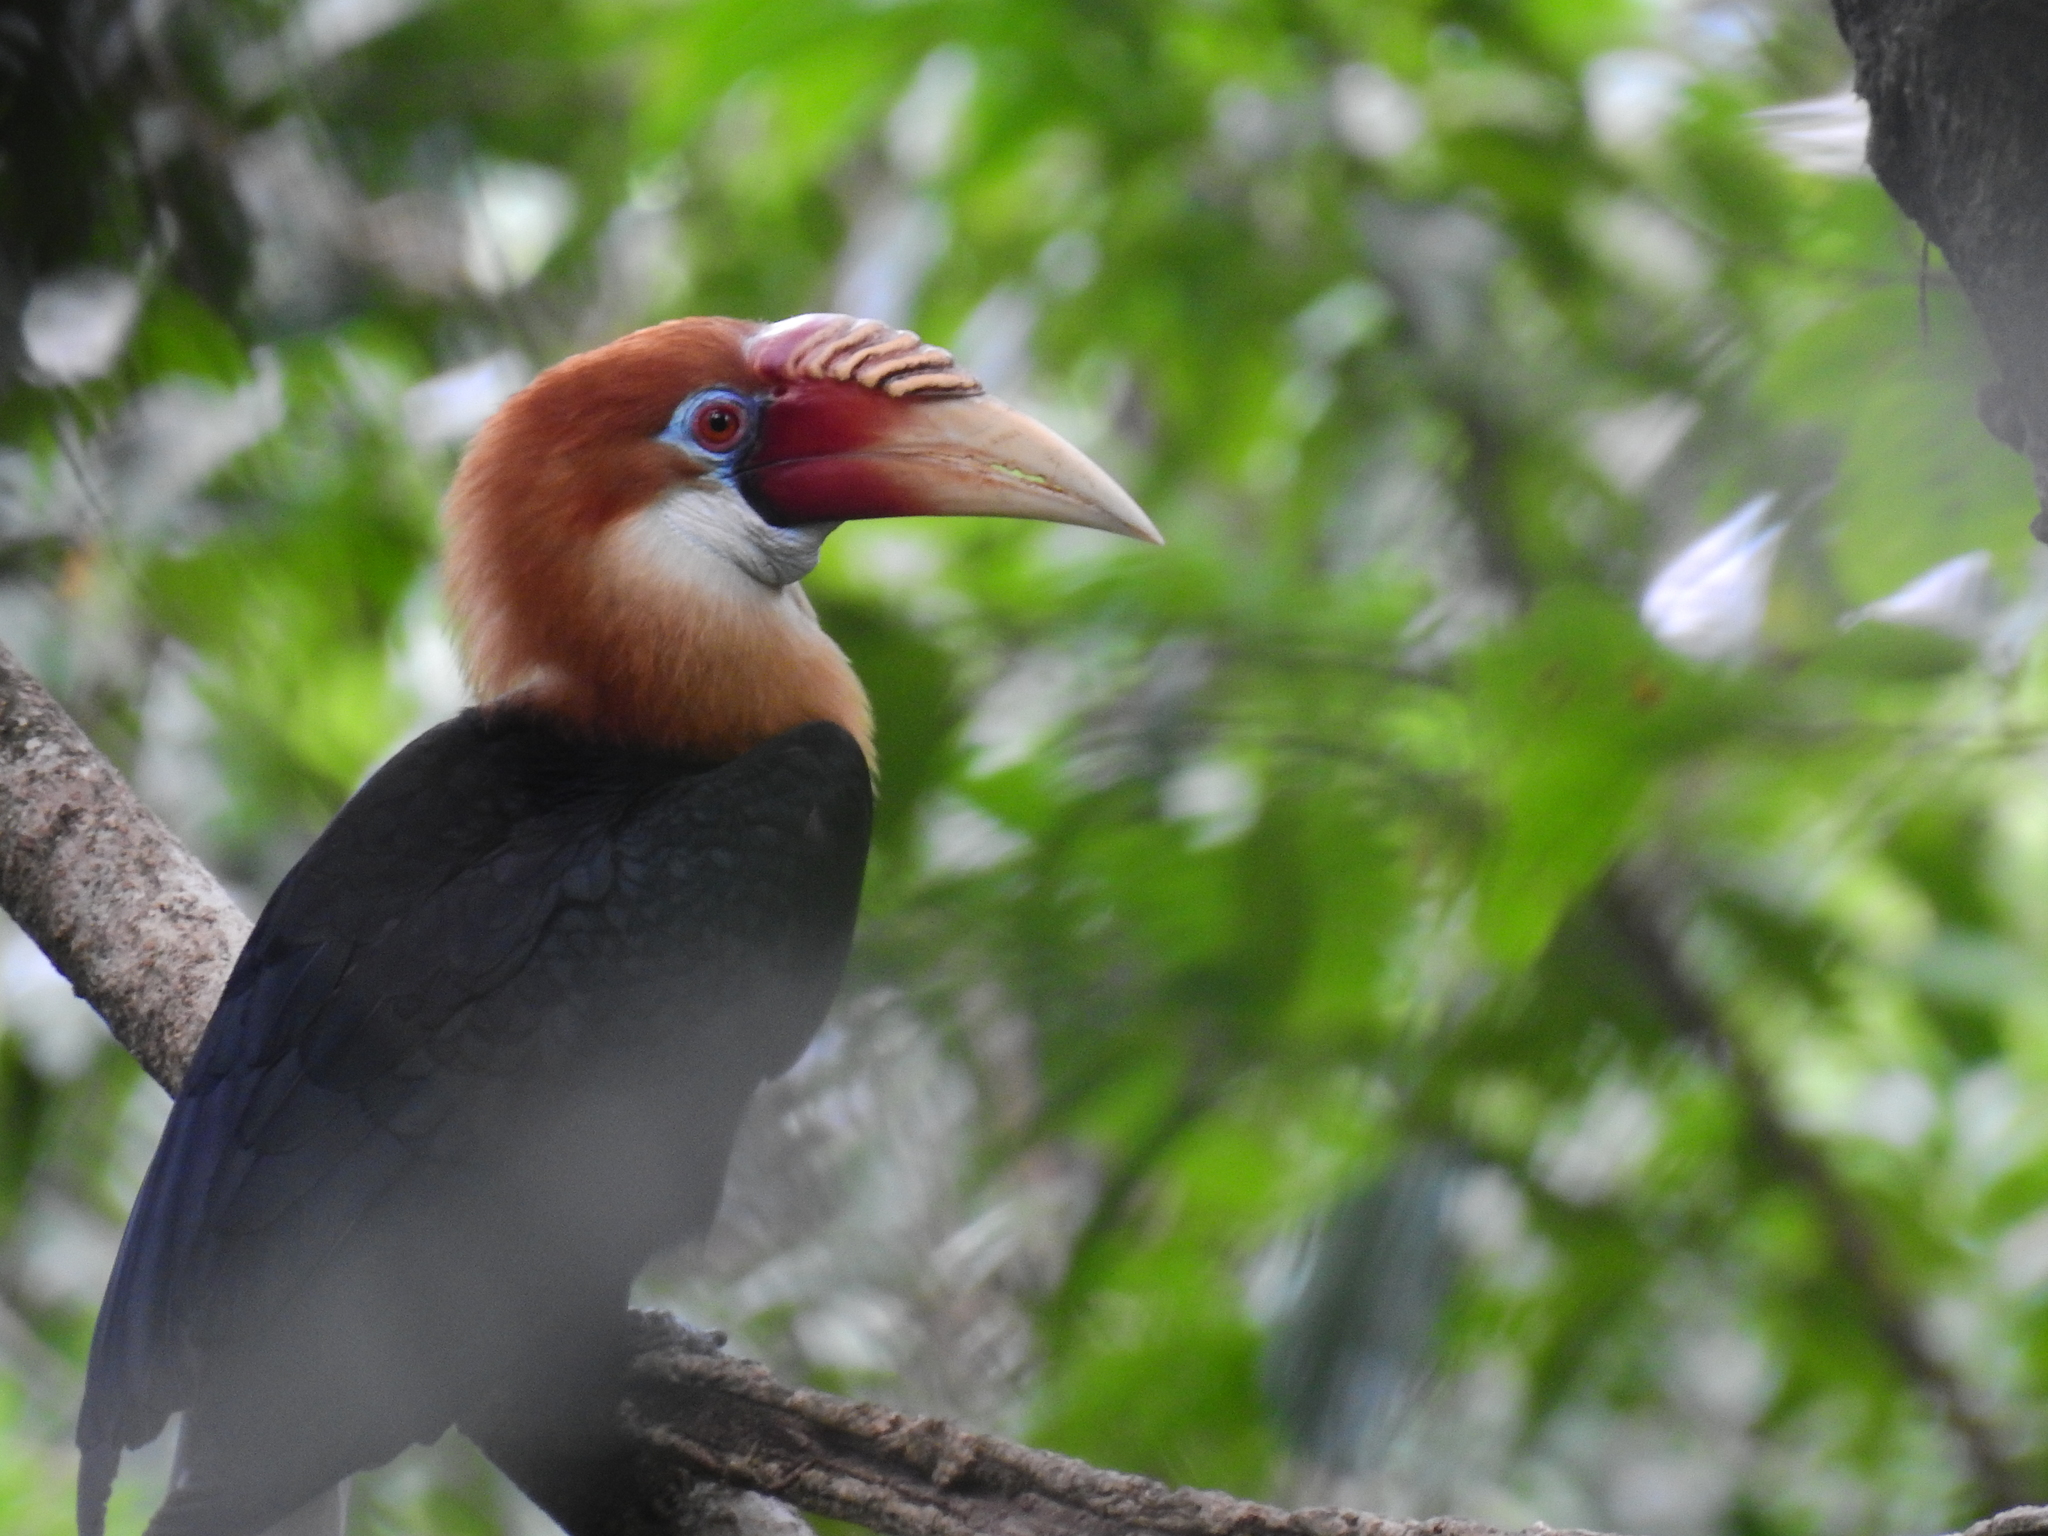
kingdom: Animalia
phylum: Chordata
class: Aves
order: Bucerotiformes
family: Bucerotidae
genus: Rhyticeros
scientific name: Rhyticeros narcondami
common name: Narcondam hornbill
